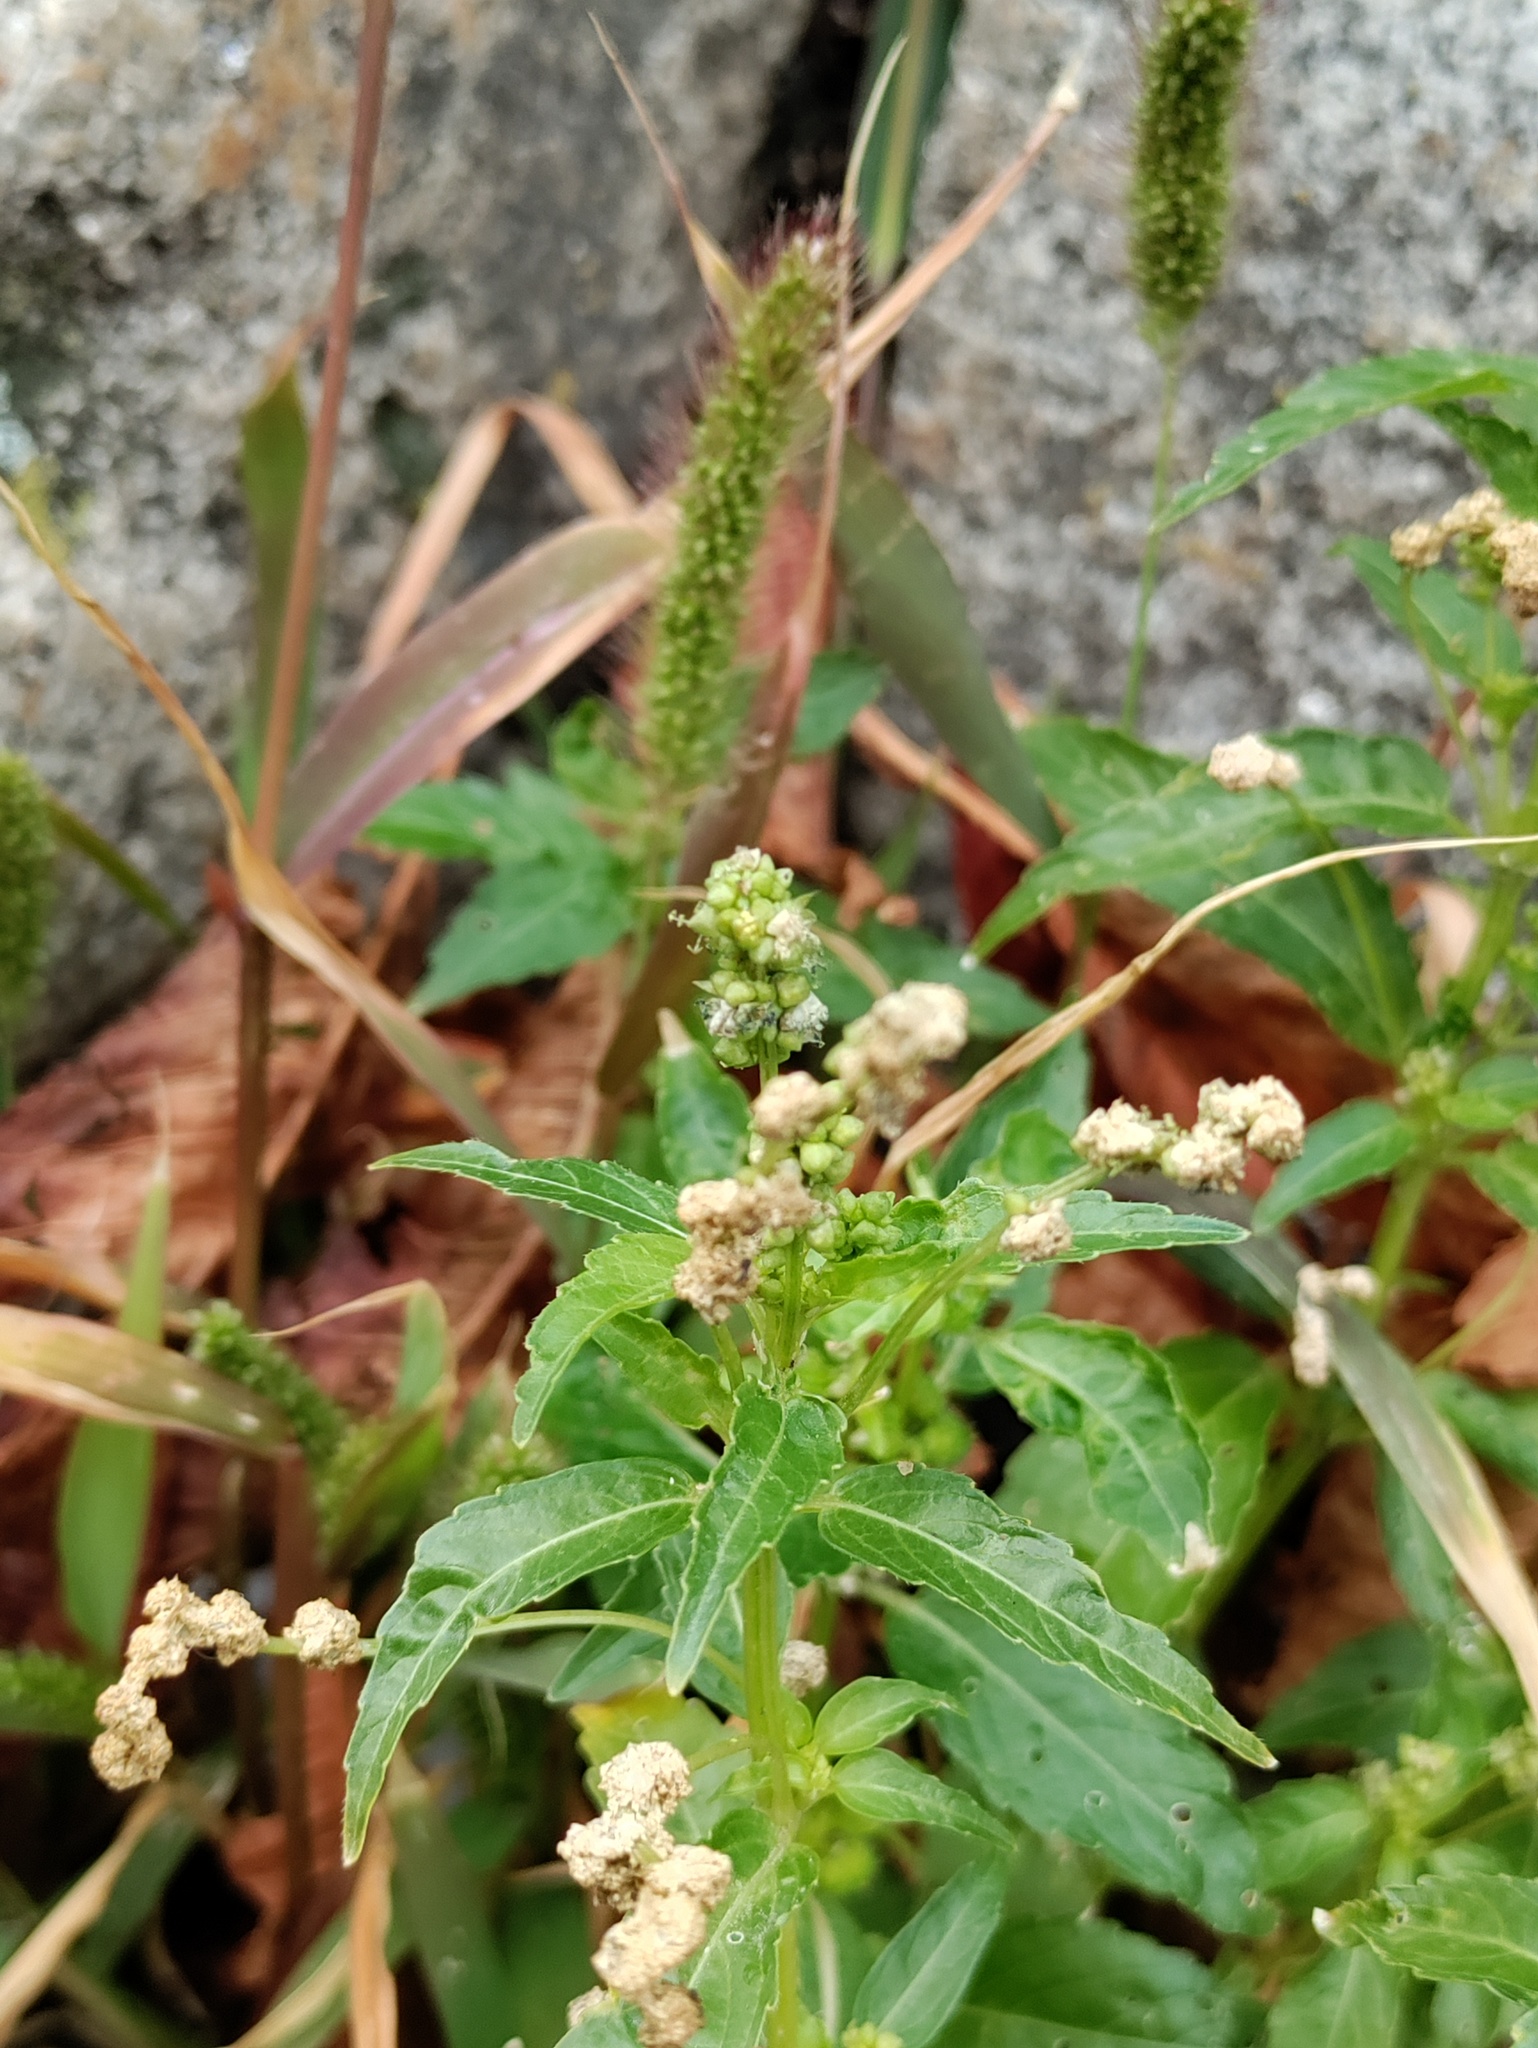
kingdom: Plantae
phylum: Tracheophyta
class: Magnoliopsida
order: Malpighiales
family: Euphorbiaceae
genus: Mercurialis
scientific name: Mercurialis annua
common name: Annual mercury
